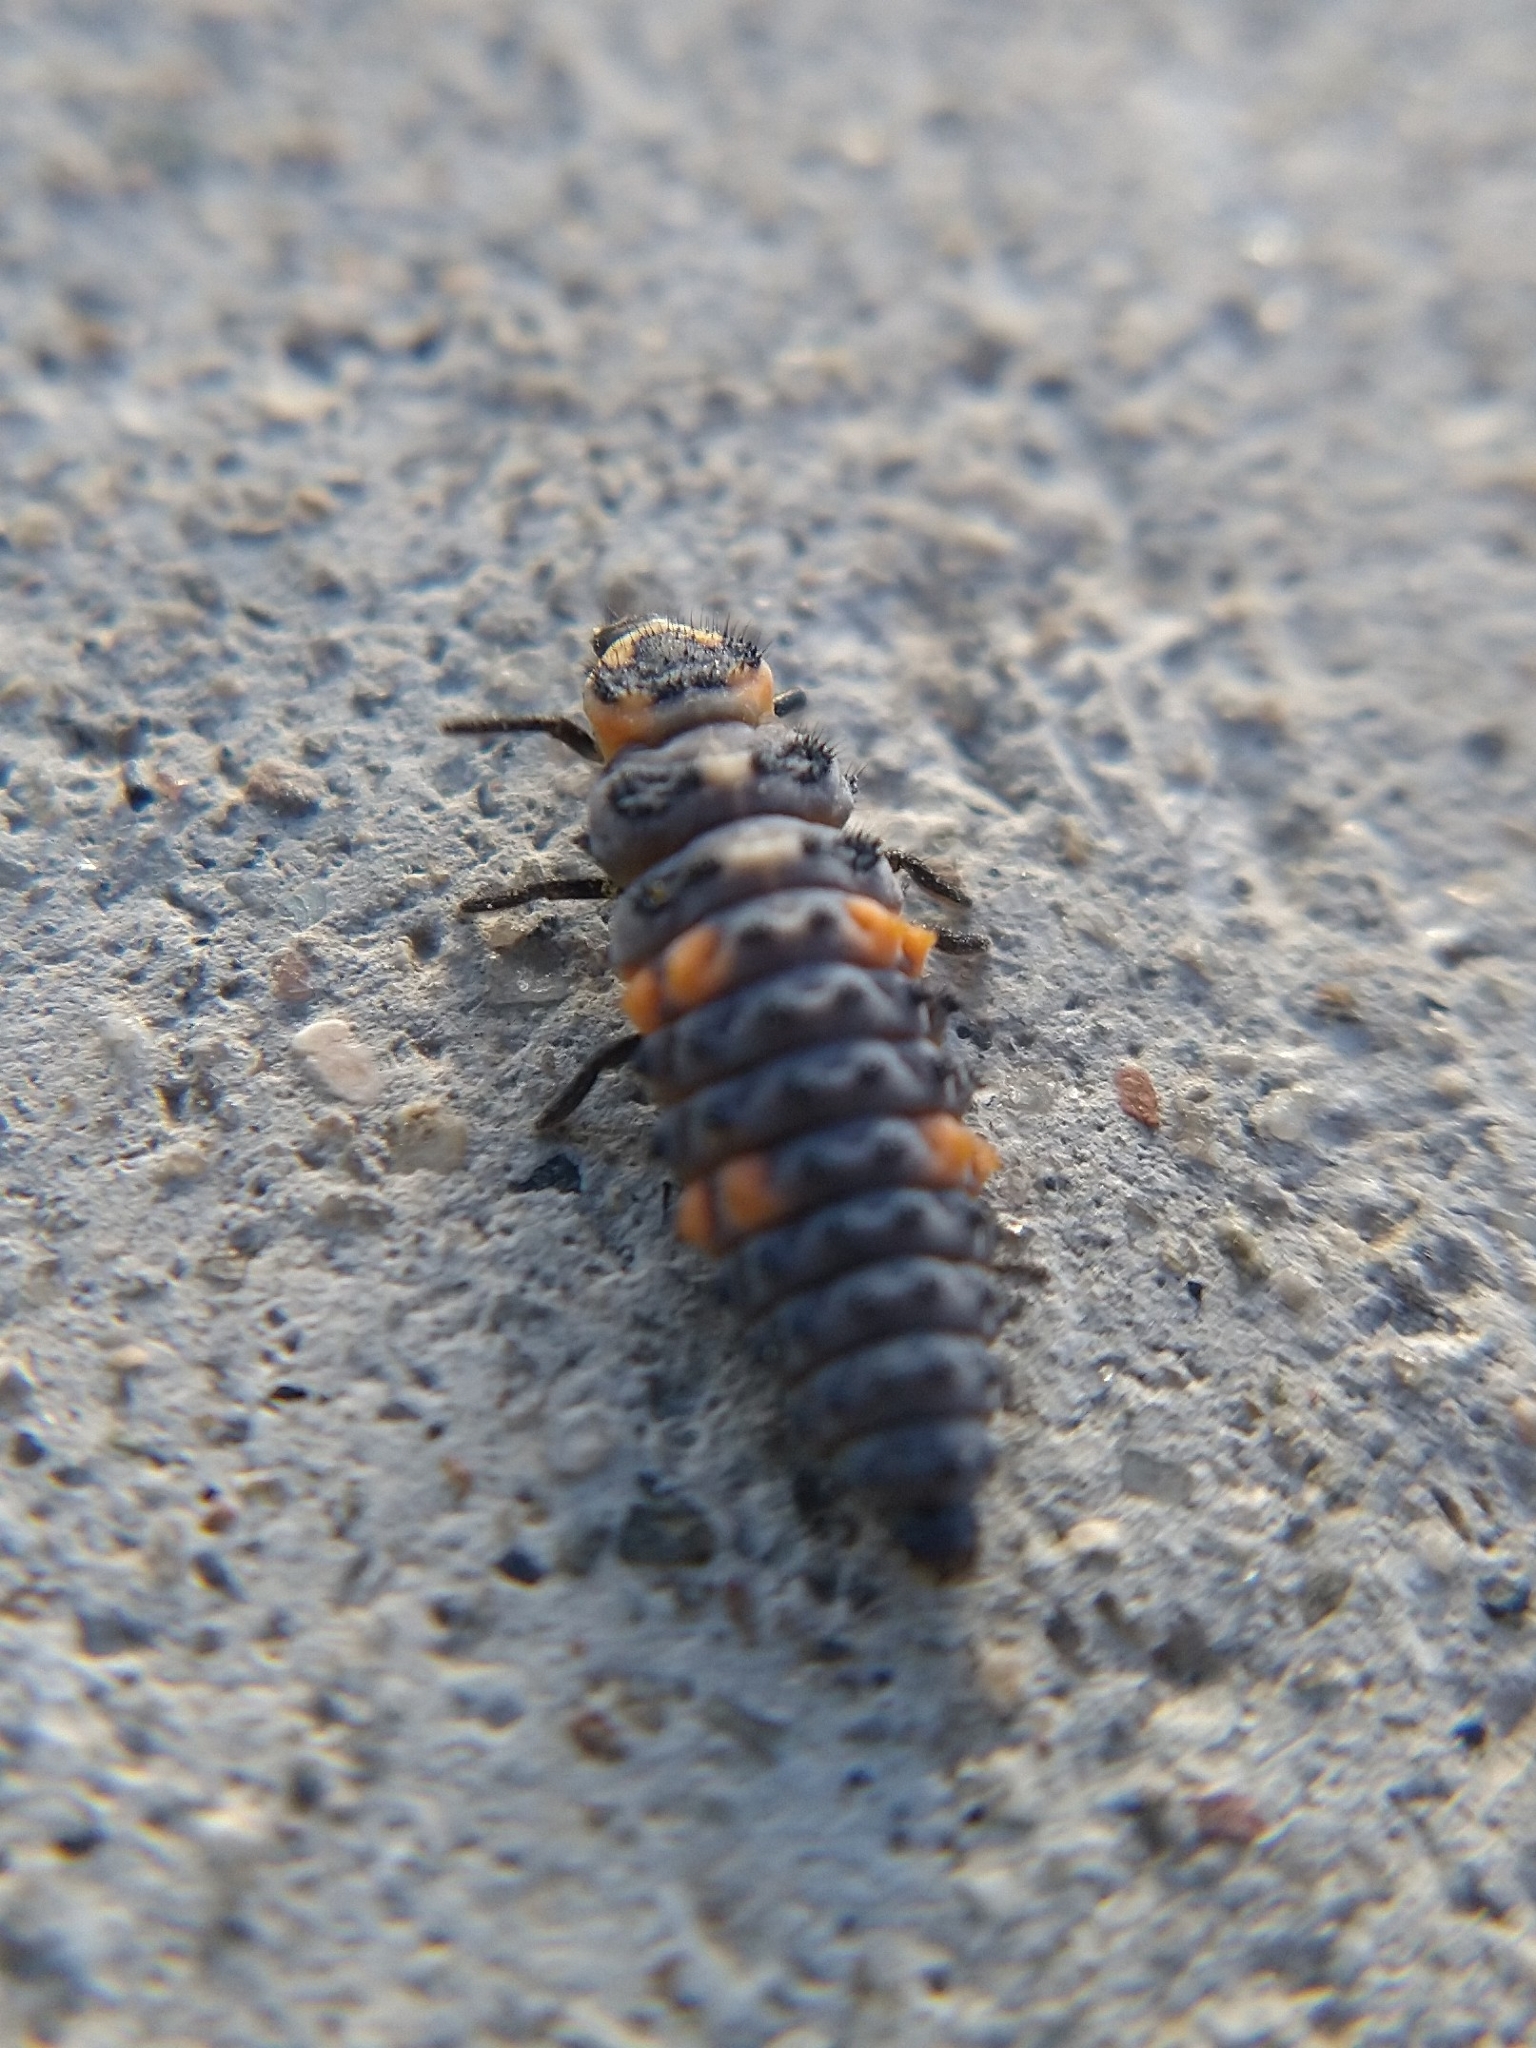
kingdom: Animalia
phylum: Arthropoda
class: Insecta
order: Coleoptera
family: Coccinellidae
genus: Coccinella
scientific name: Coccinella septempunctata
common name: Sevenspotted lady beetle
